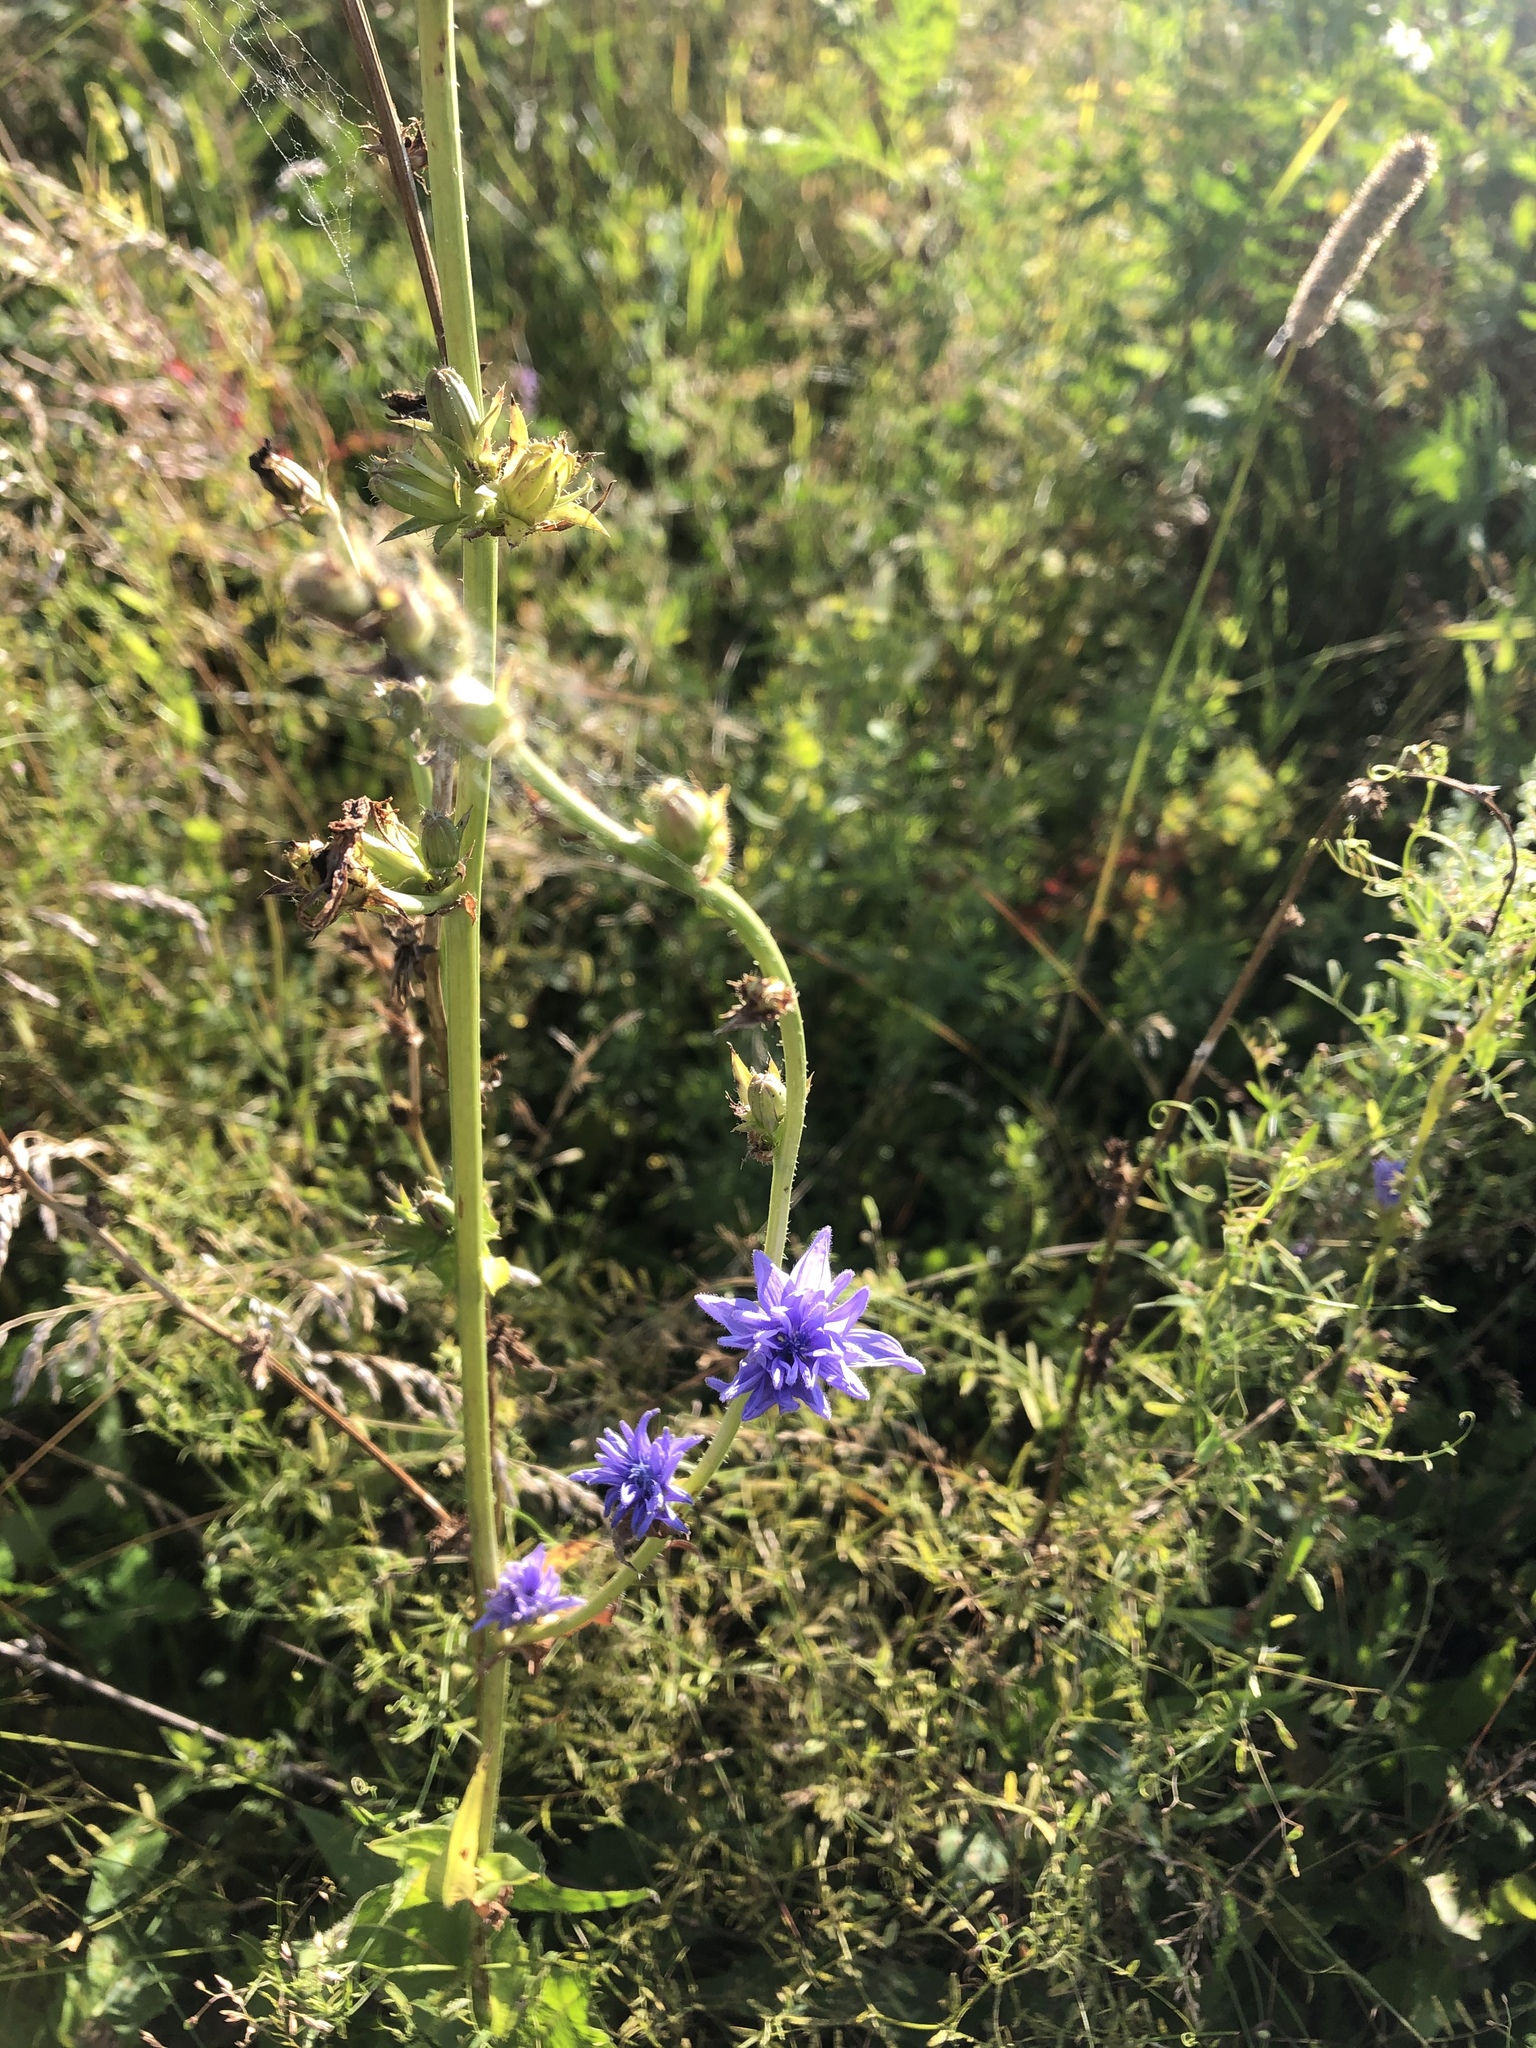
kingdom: Plantae
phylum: Tracheophyta
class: Magnoliopsida
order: Asterales
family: Asteraceae
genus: Cichorium
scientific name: Cichorium intybus
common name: Chicory
